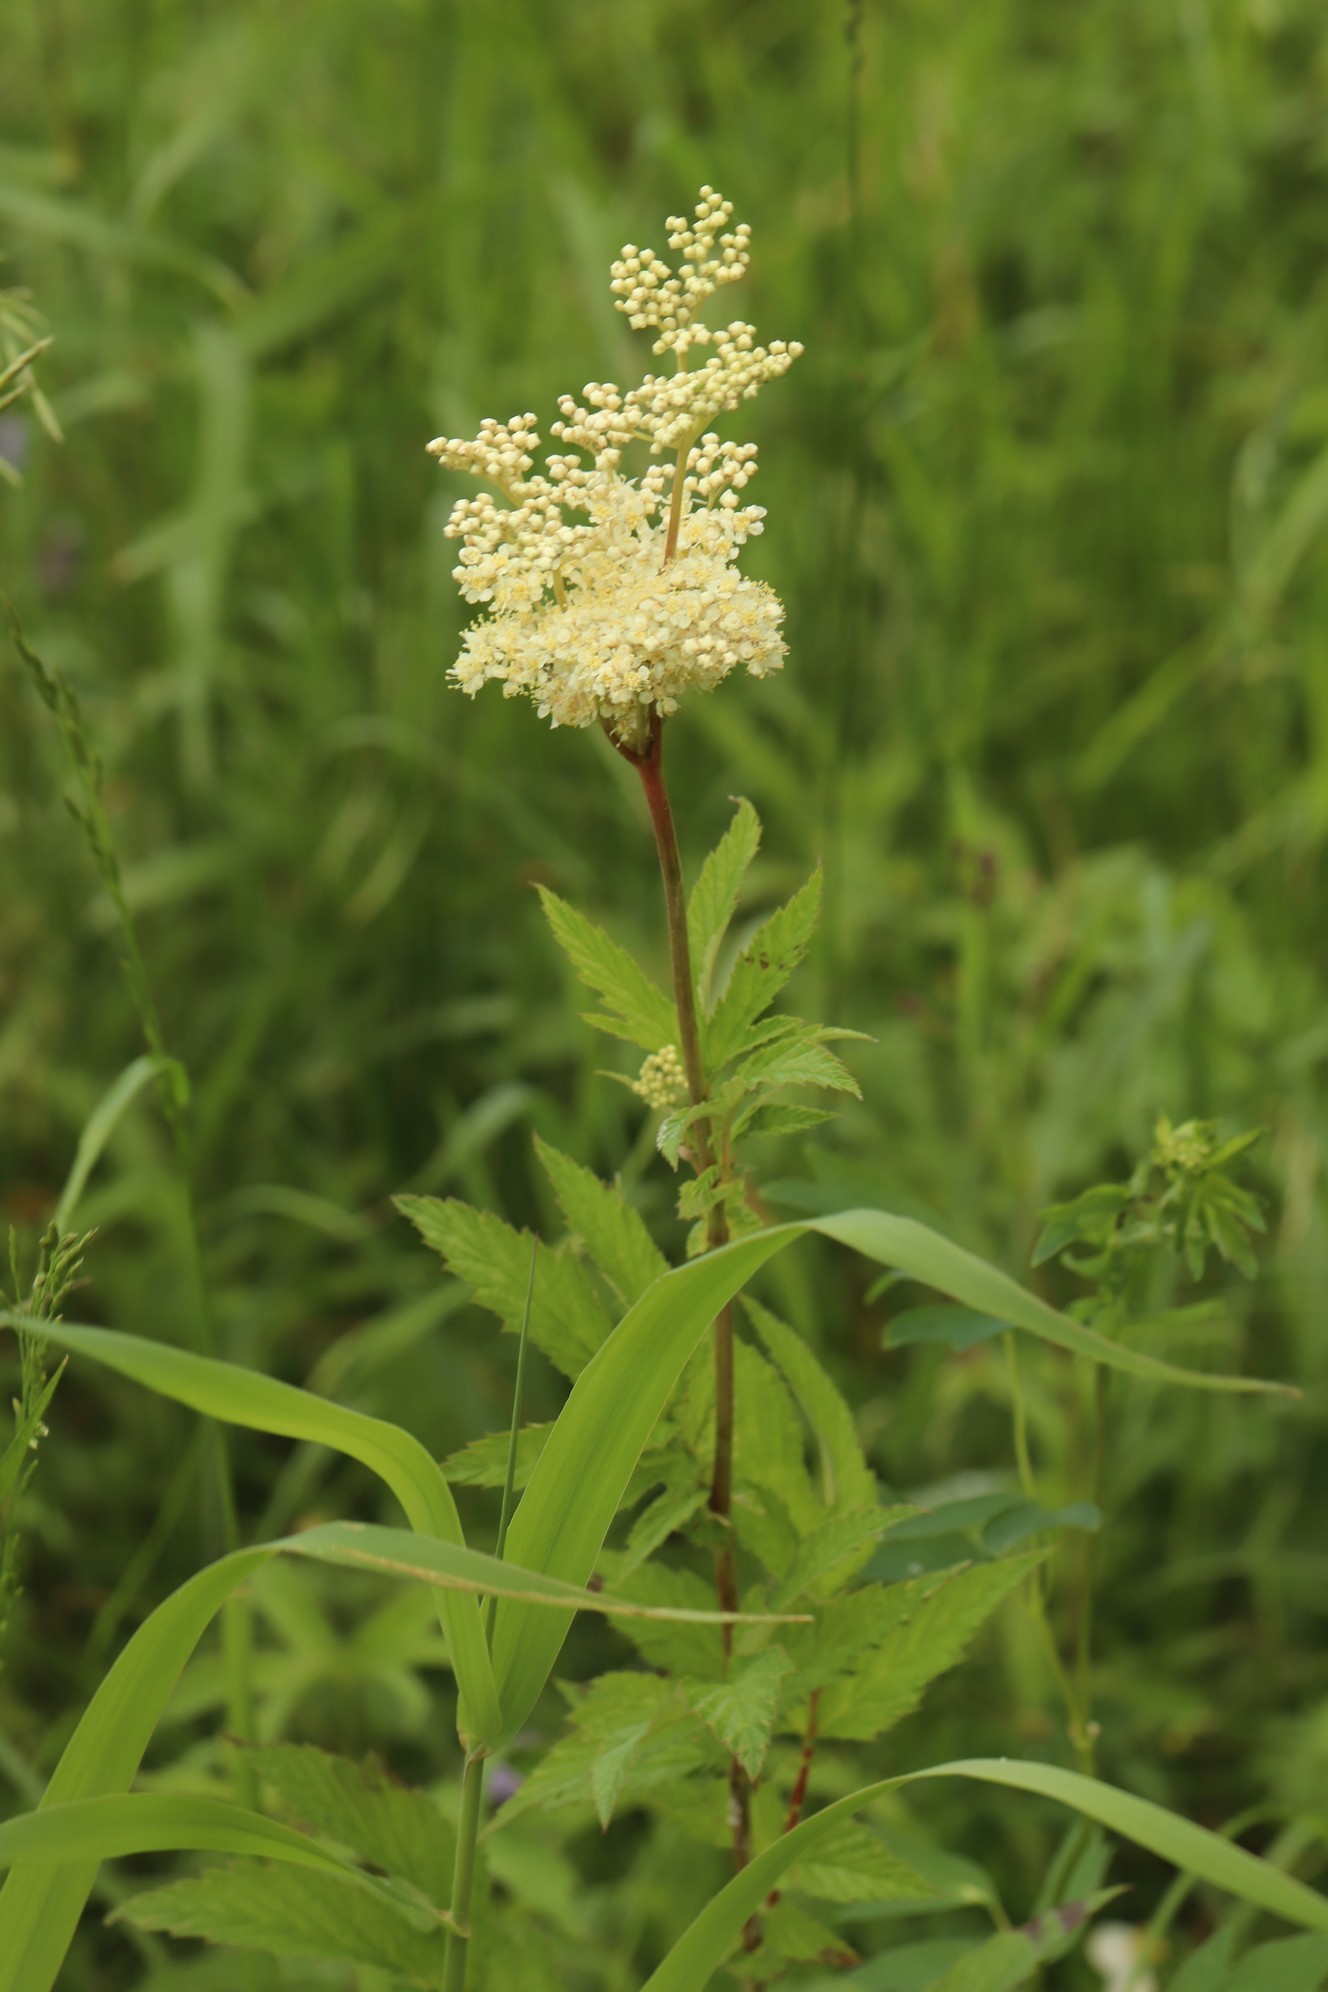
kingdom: Plantae
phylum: Tracheophyta
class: Magnoliopsida
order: Rosales
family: Rosaceae
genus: Filipendula
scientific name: Filipendula ulmaria
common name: Meadowsweet
